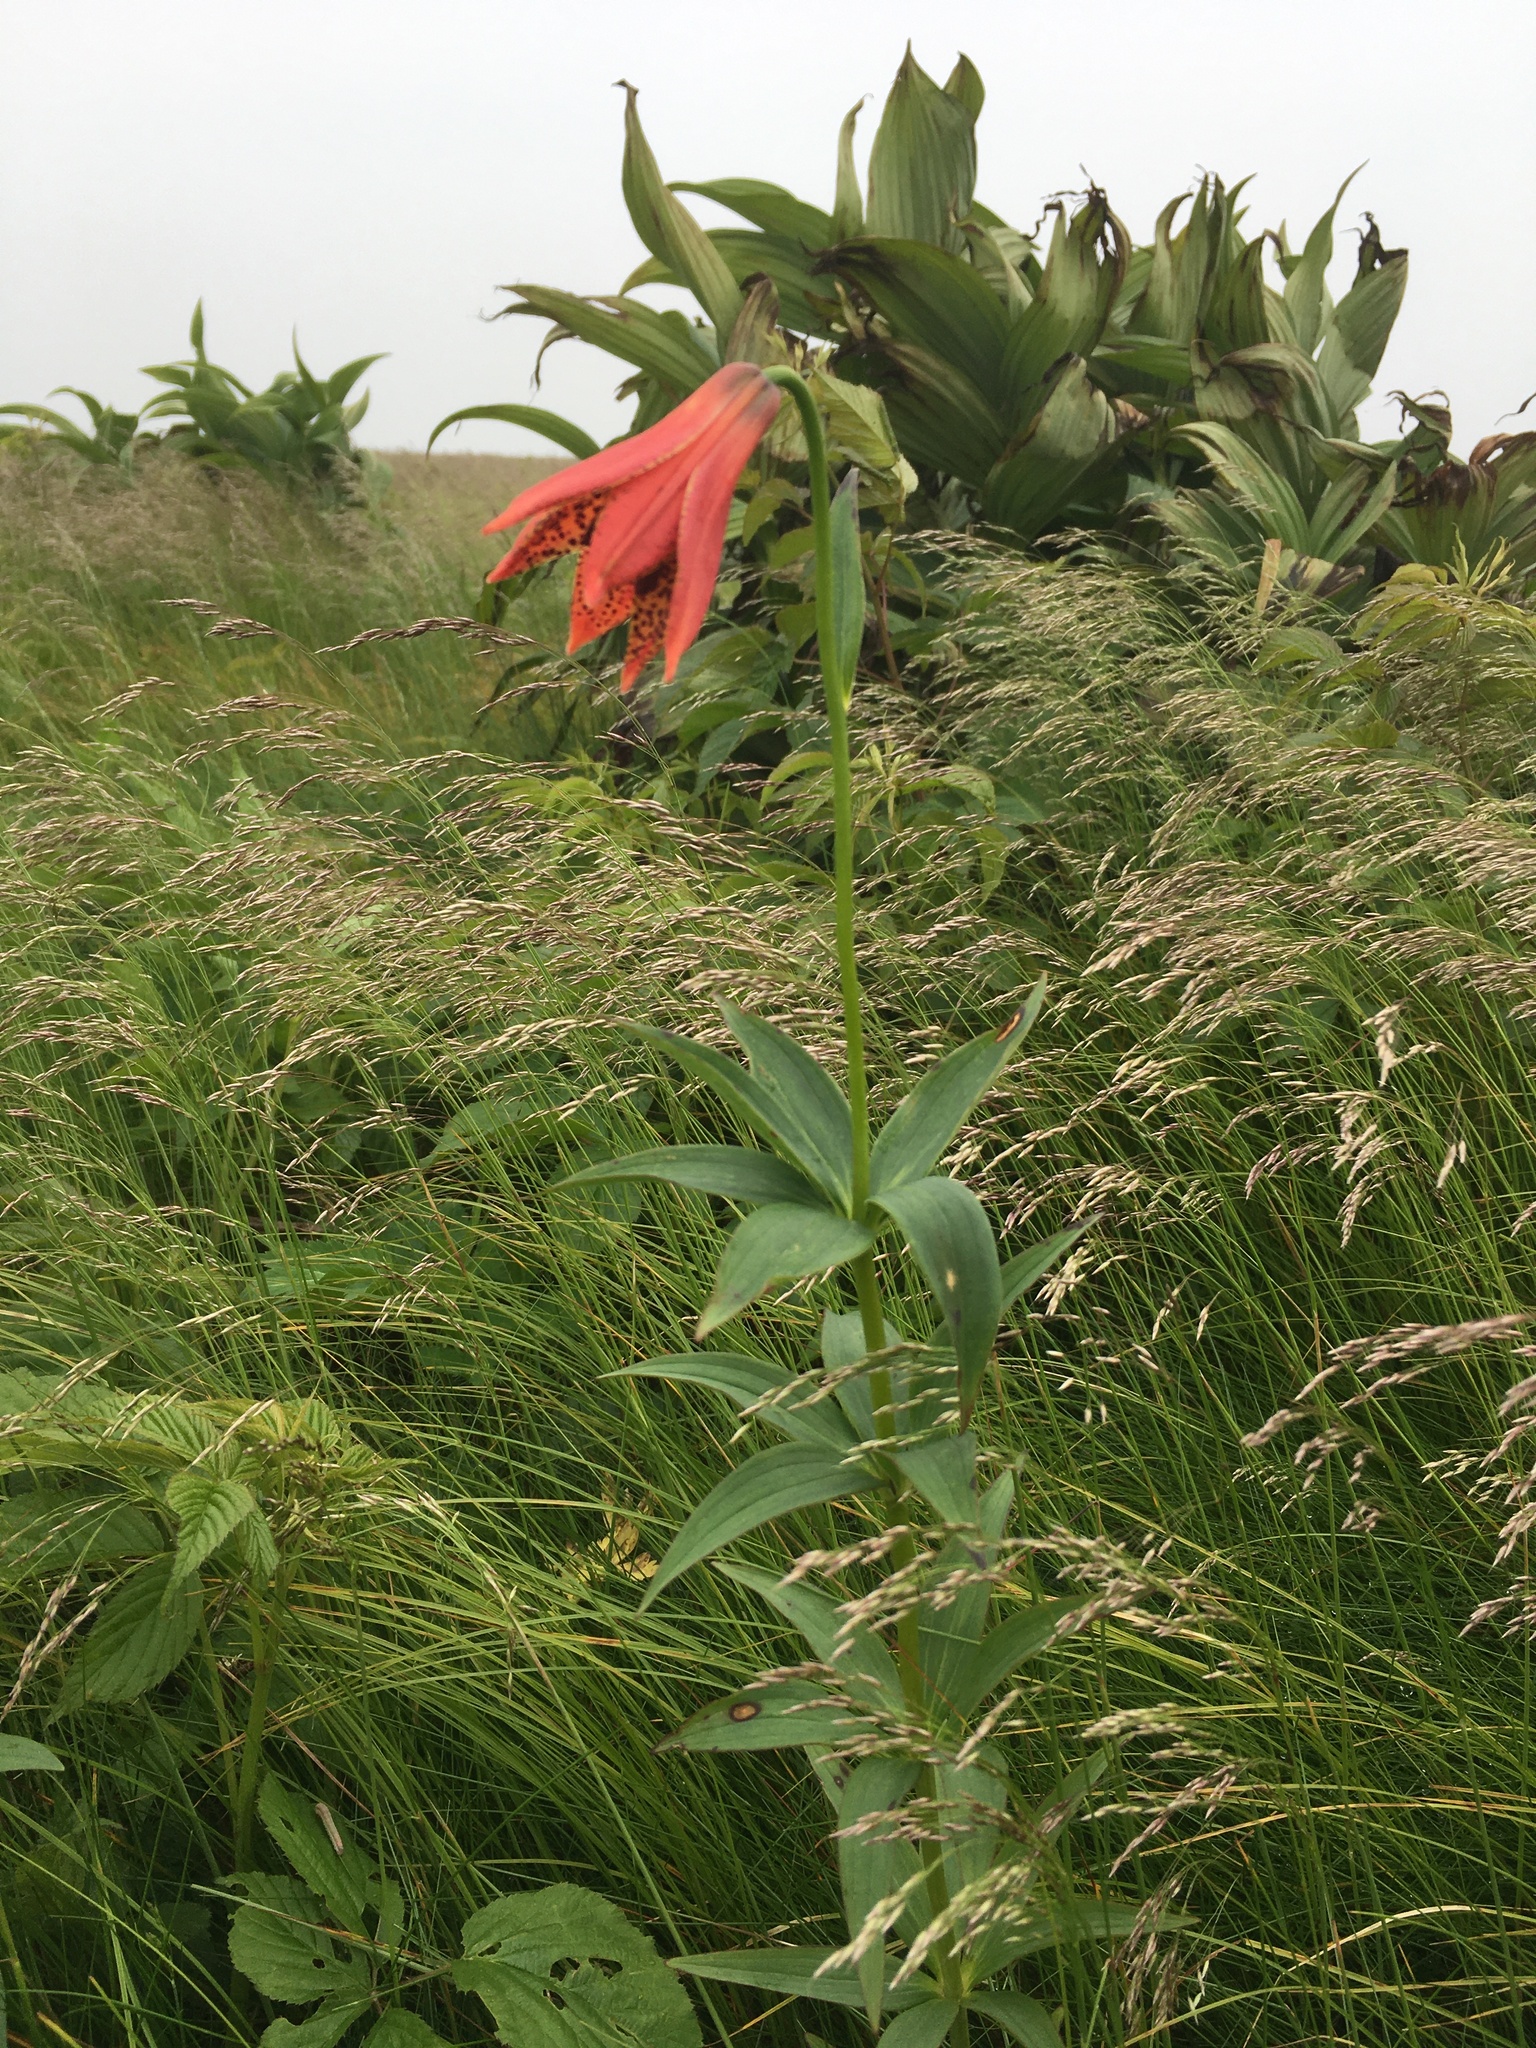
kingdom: Plantae
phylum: Tracheophyta
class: Liliopsida
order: Liliales
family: Liliaceae
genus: Lilium
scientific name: Lilium grayi
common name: Gray's lily
